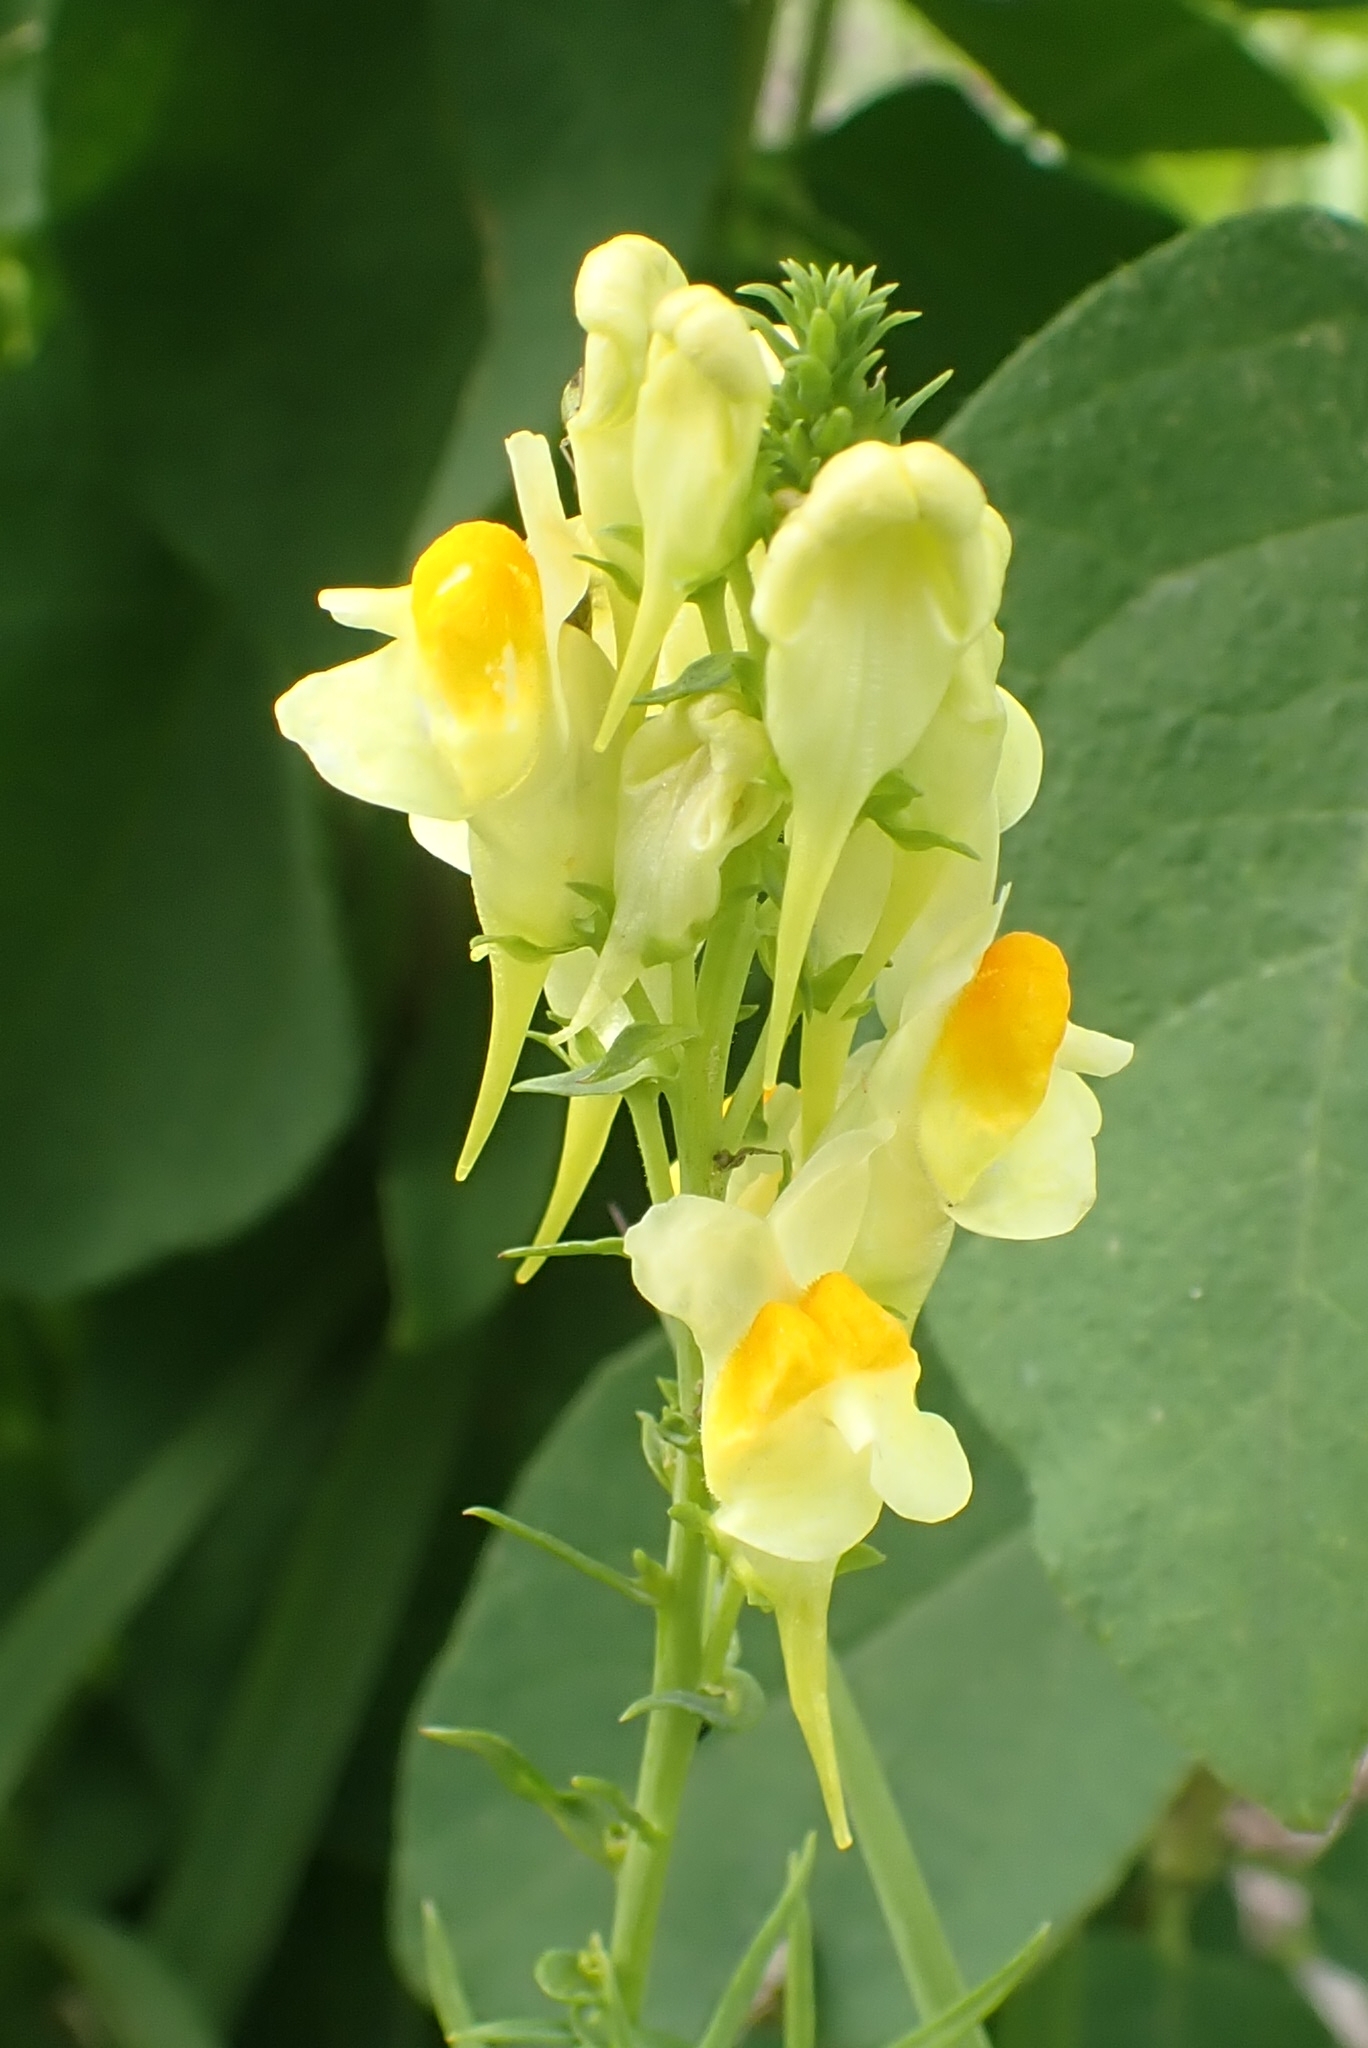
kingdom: Plantae
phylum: Tracheophyta
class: Magnoliopsida
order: Lamiales
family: Plantaginaceae
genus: Linaria
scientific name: Linaria vulgaris
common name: Butter and eggs
